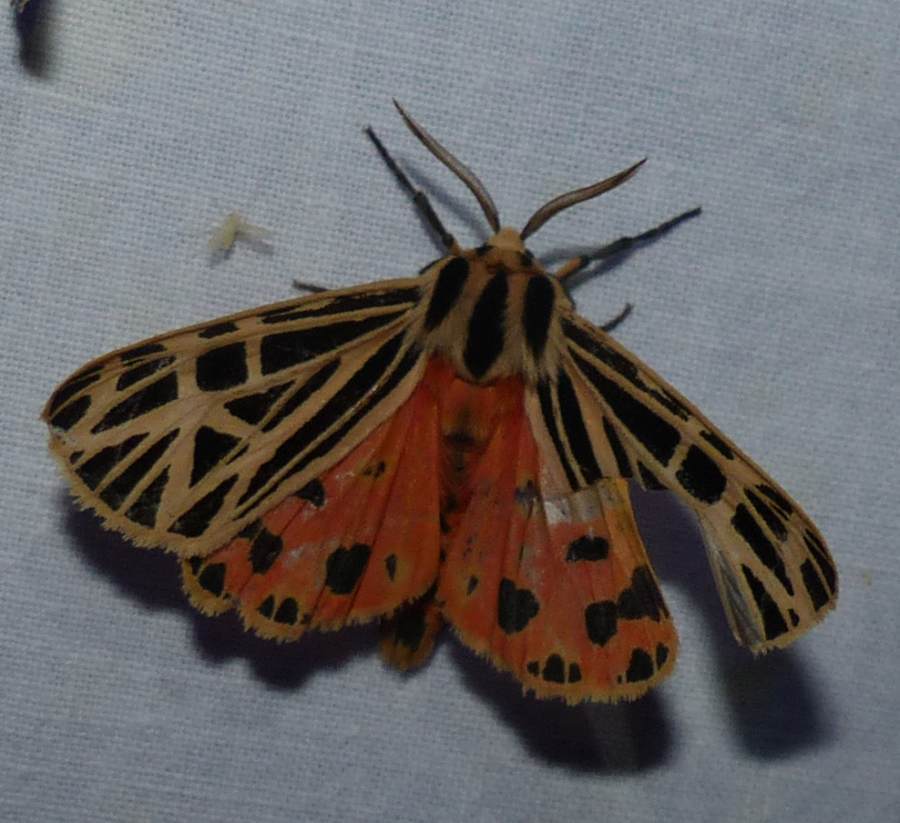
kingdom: Animalia
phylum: Arthropoda
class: Insecta
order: Lepidoptera
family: Erebidae
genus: Grammia
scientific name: Grammia virgo
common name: Virgin tiger moth
